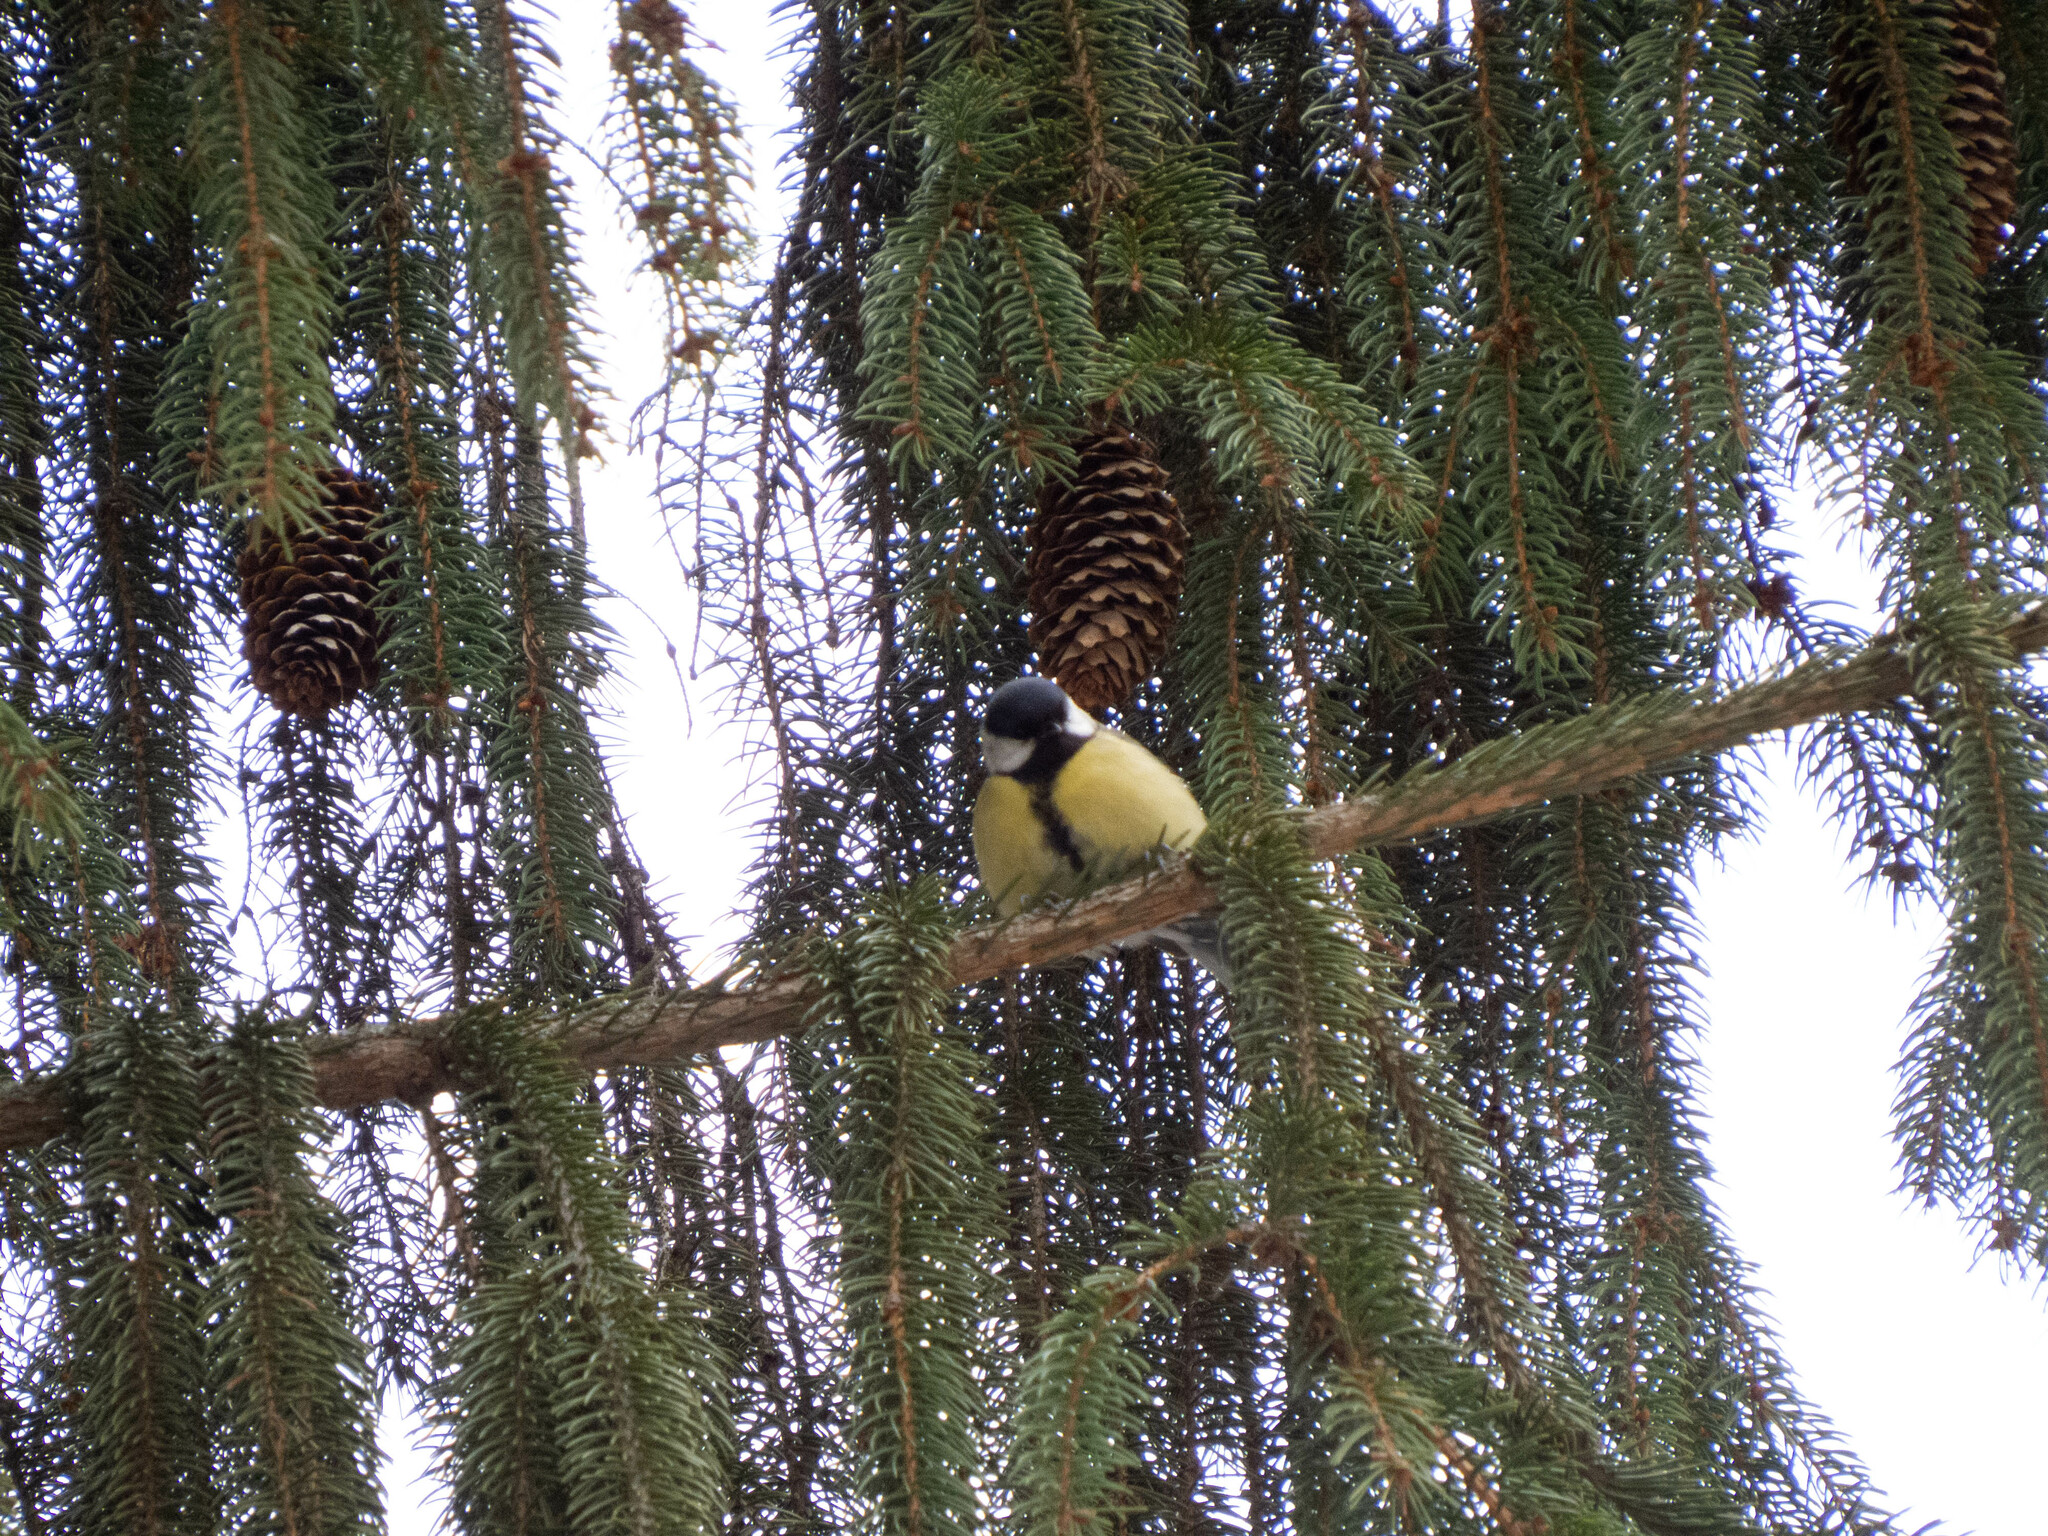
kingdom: Animalia
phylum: Chordata
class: Aves
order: Passeriformes
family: Paridae
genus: Parus
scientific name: Parus major
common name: Great tit
